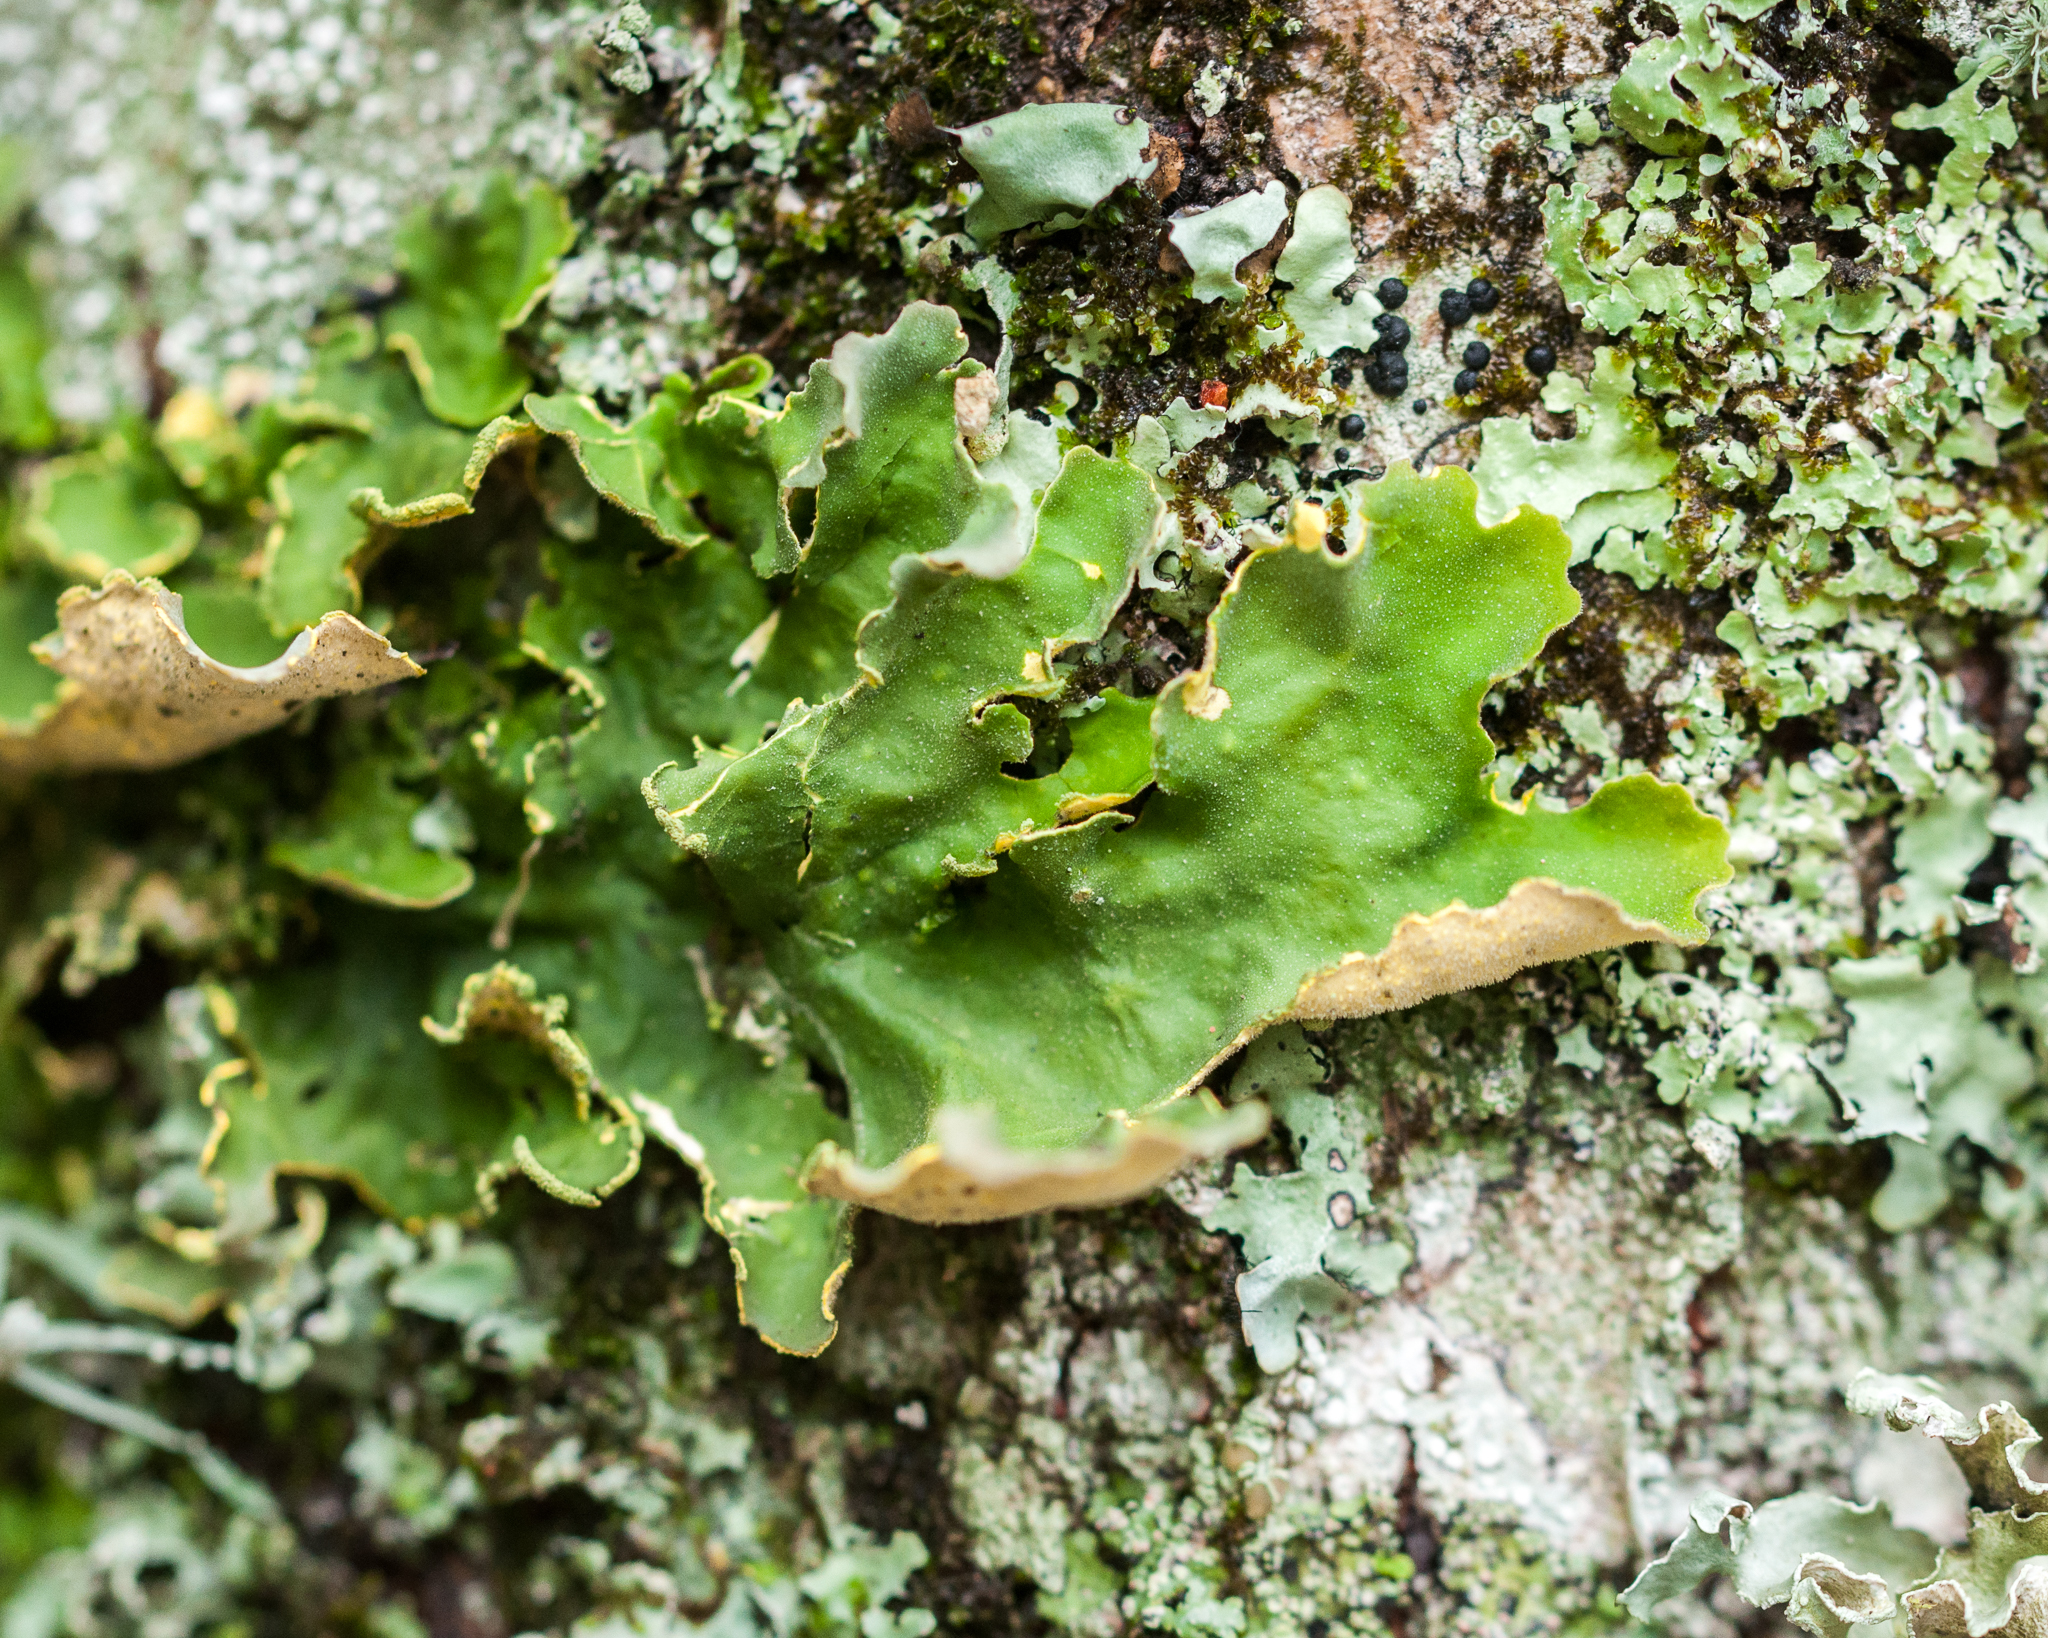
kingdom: Fungi
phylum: Ascomycota
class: Lecanoromycetes
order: Peltigerales
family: Lobariaceae
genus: Pseudocyphellaria
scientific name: Pseudocyphellaria aurata
